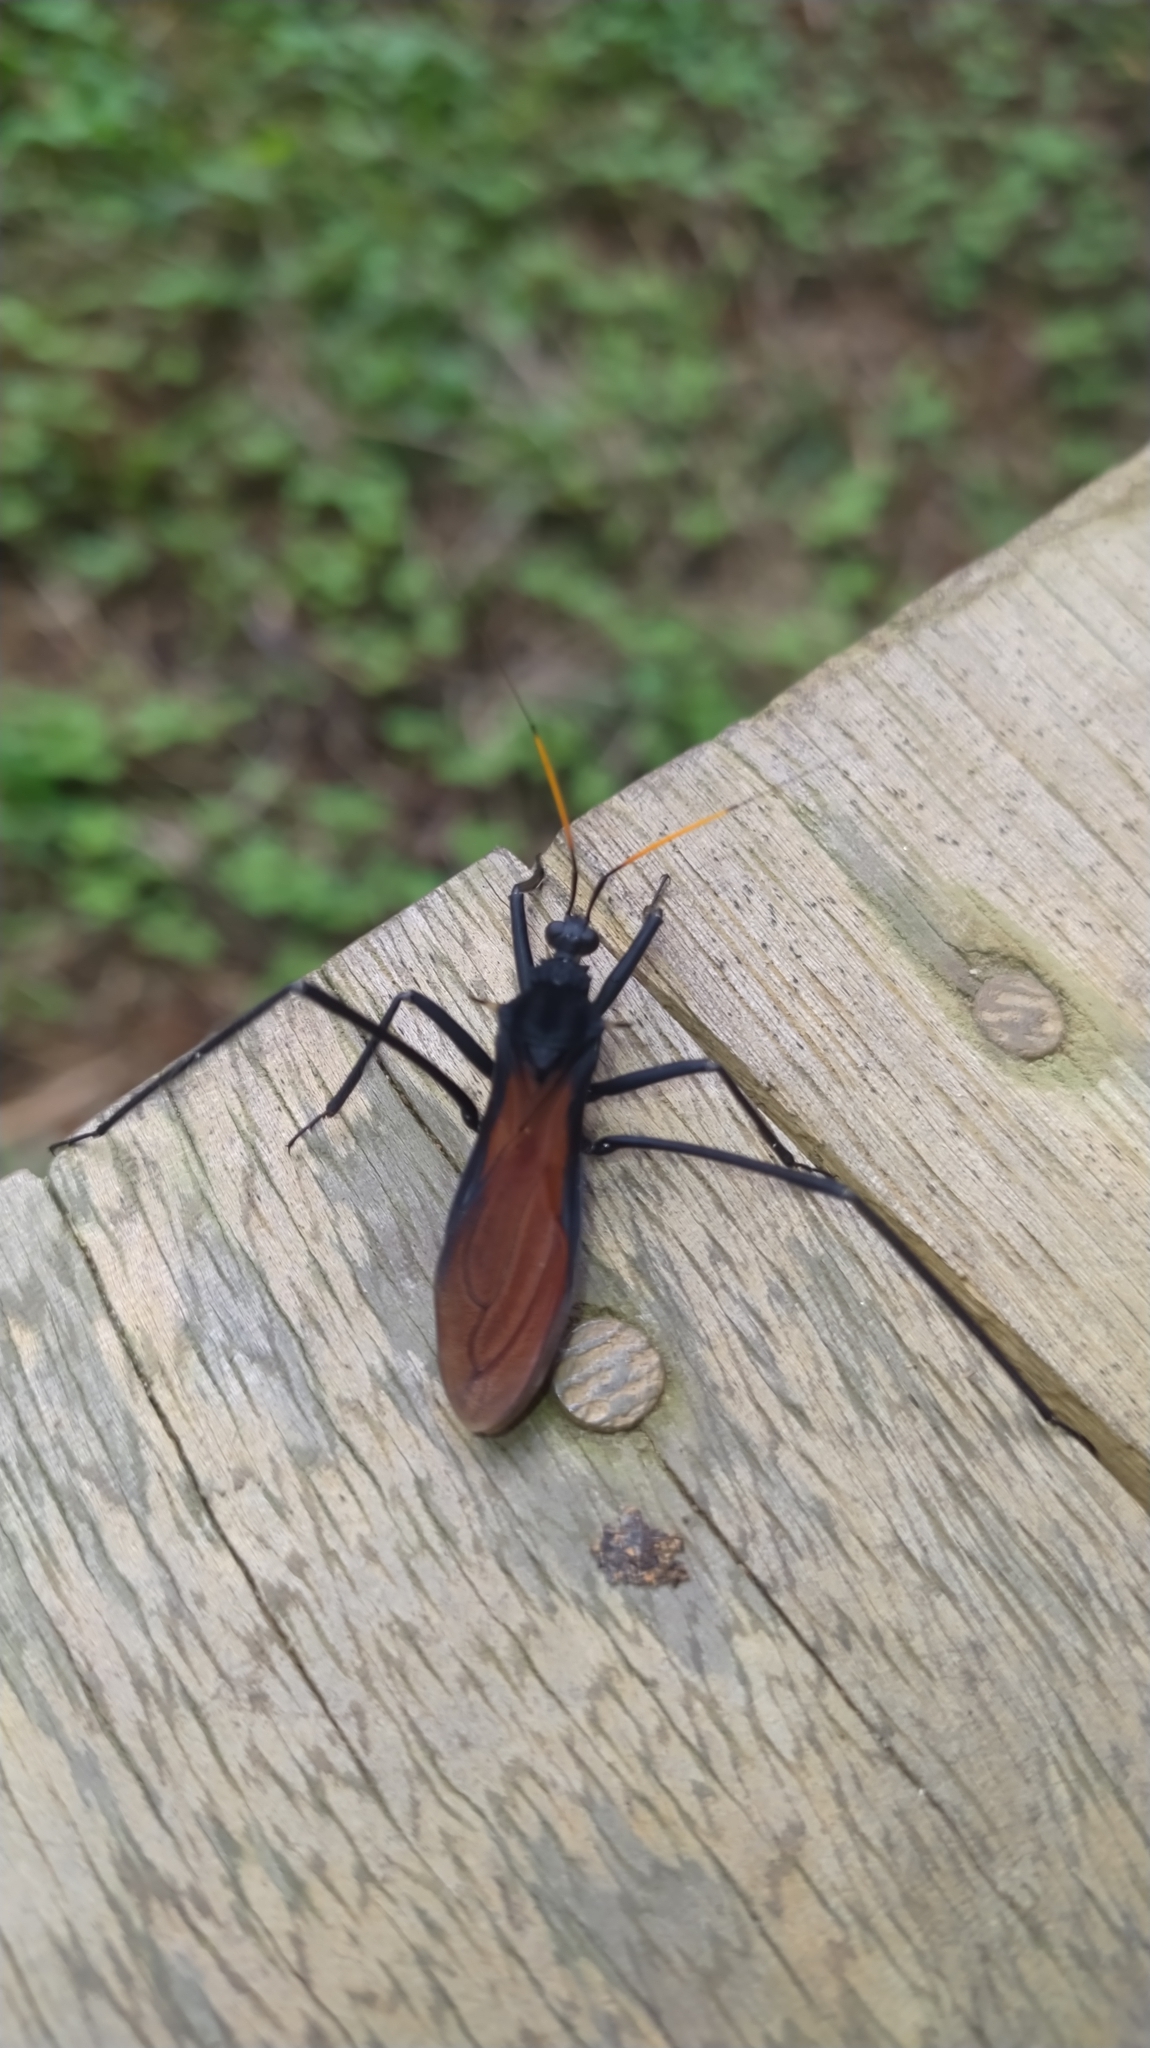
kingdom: Animalia
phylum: Arthropoda
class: Insecta
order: Hemiptera
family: Reduviidae
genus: Zelurus
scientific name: Zelurus spinidorsis
